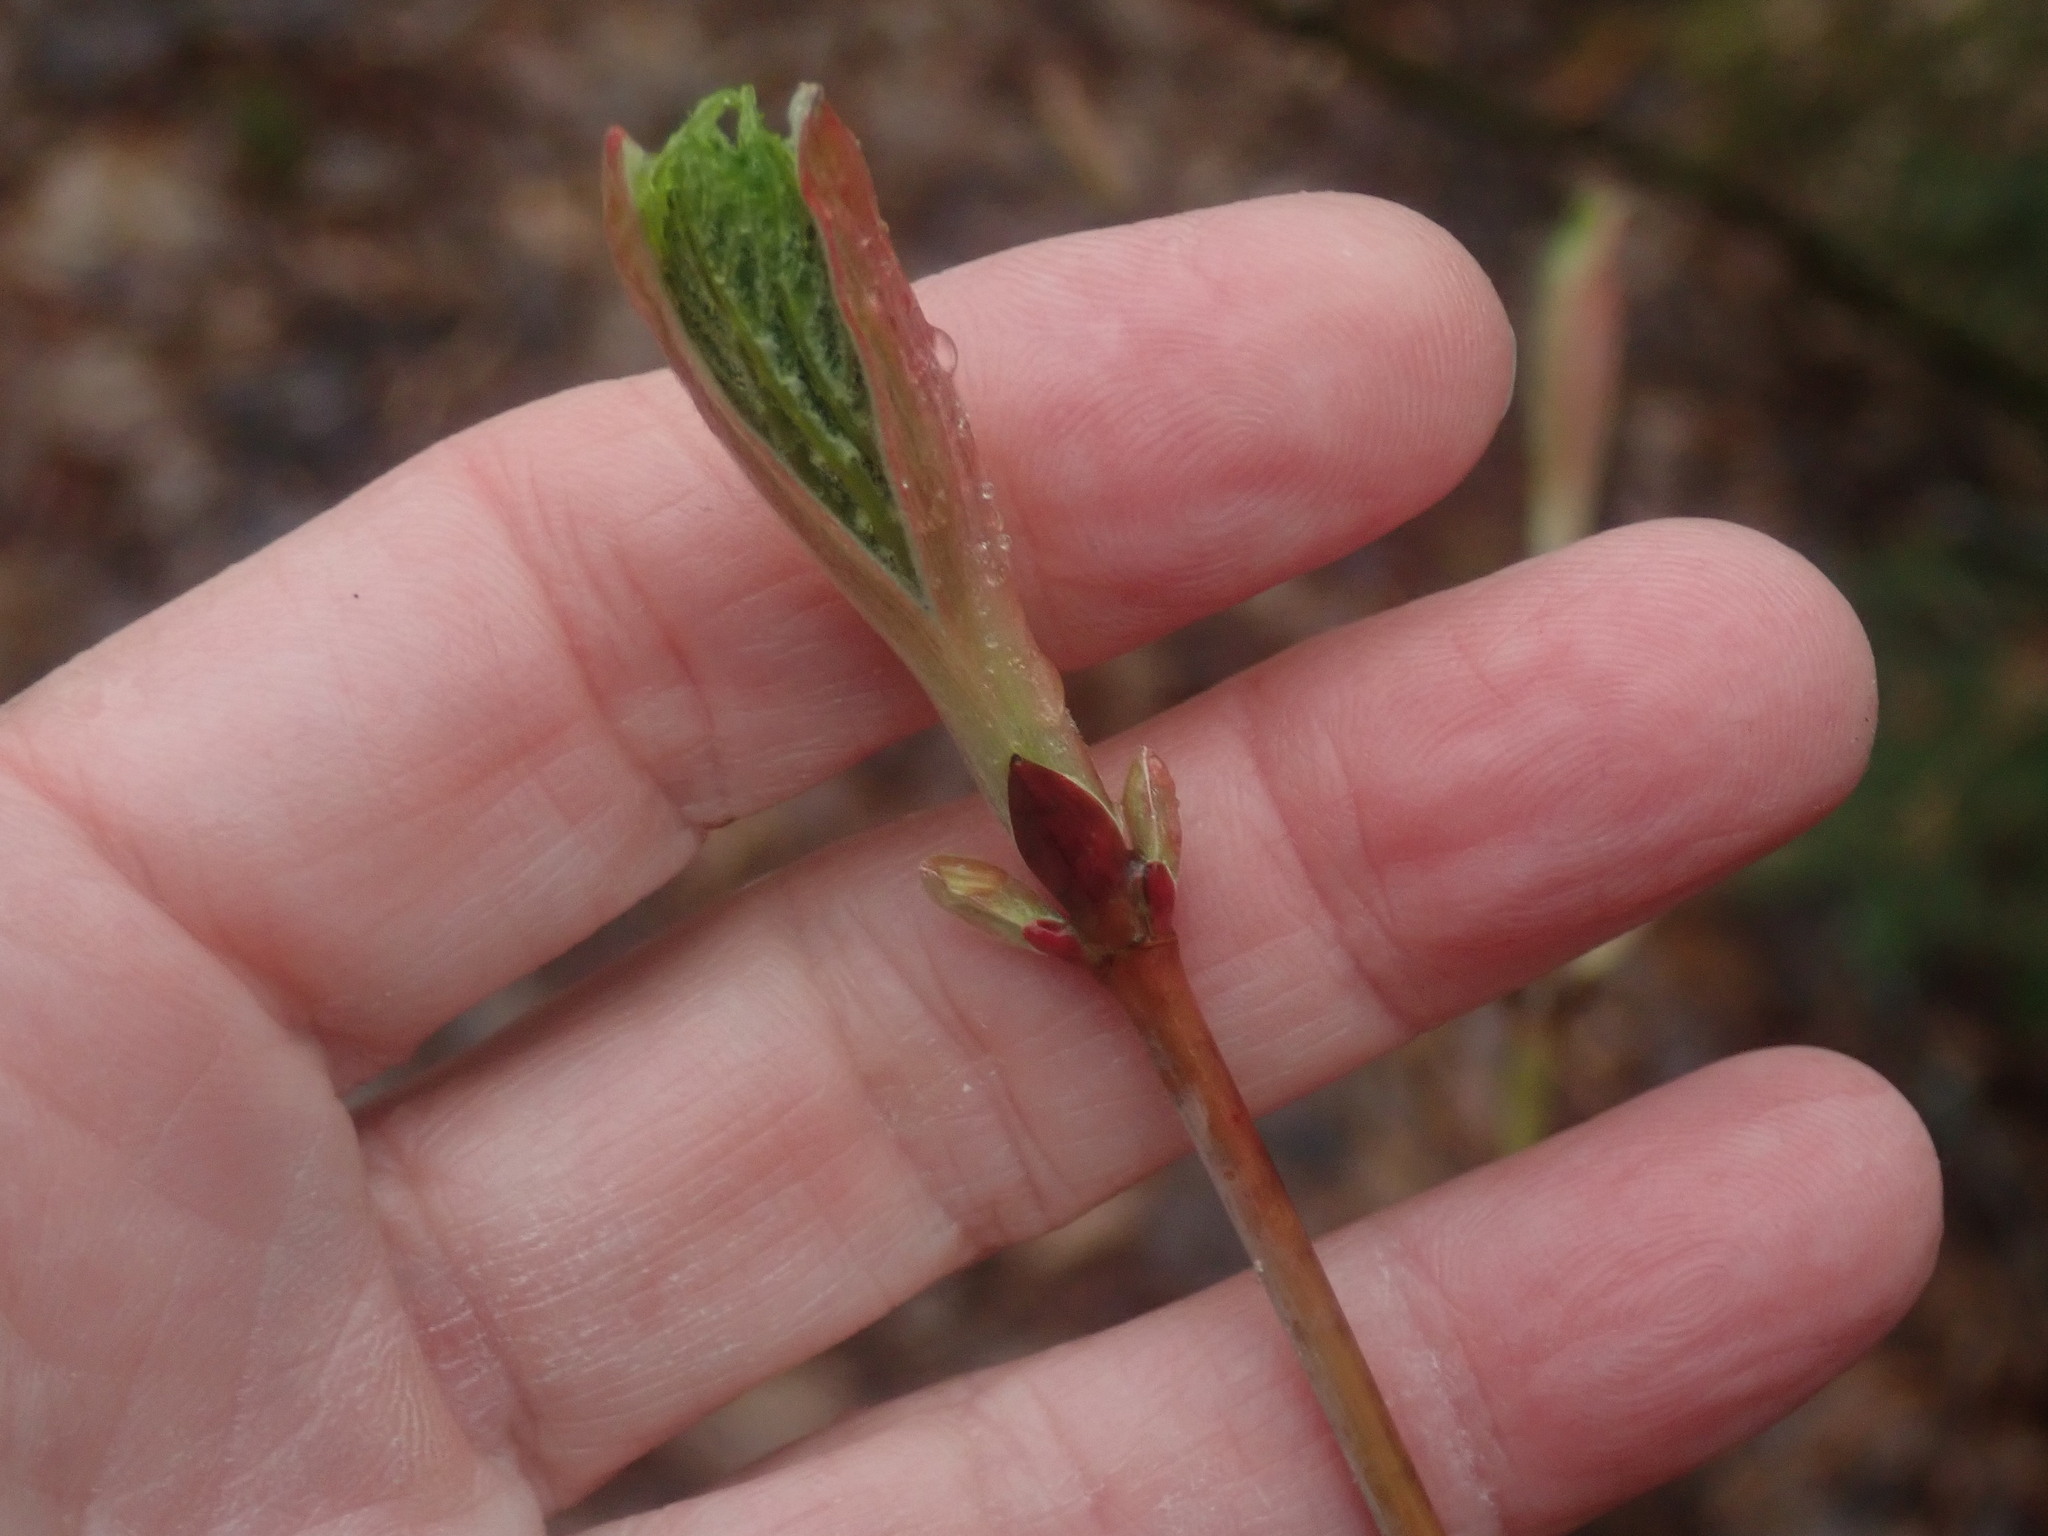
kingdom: Plantae
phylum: Tracheophyta
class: Magnoliopsida
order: Sapindales
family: Sapindaceae
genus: Acer
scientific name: Acer pensylvanicum
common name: Moosewood
